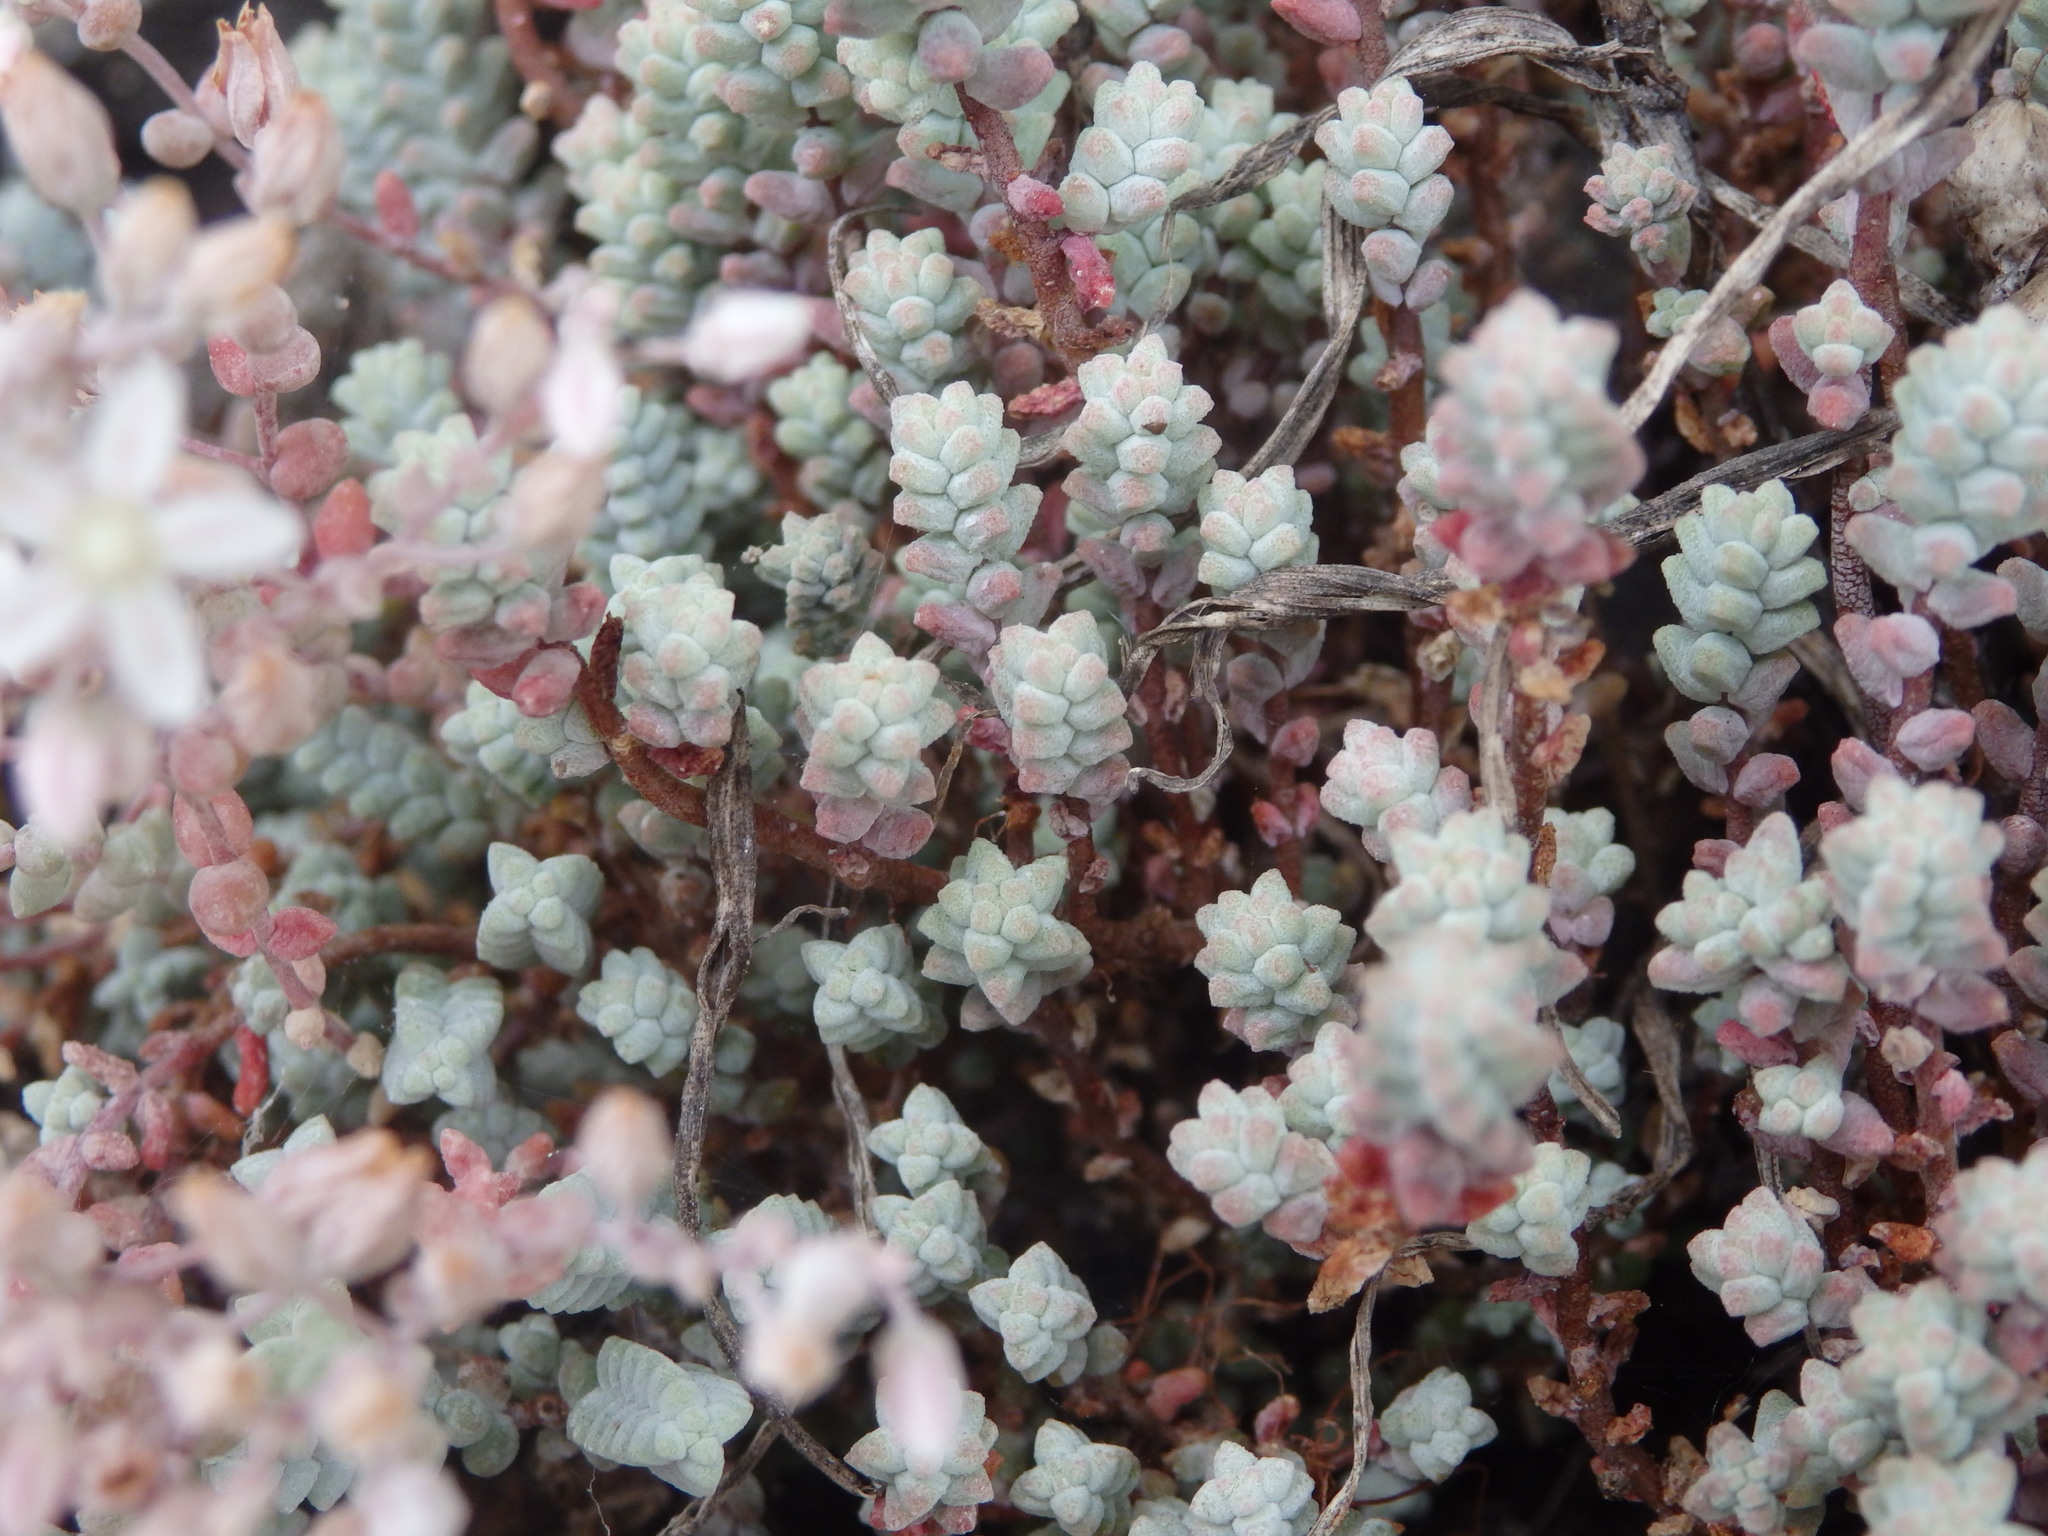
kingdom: Plantae
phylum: Tracheophyta
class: Magnoliopsida
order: Saxifragales
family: Crassulaceae
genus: Sedum
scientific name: Sedum brevifolium
